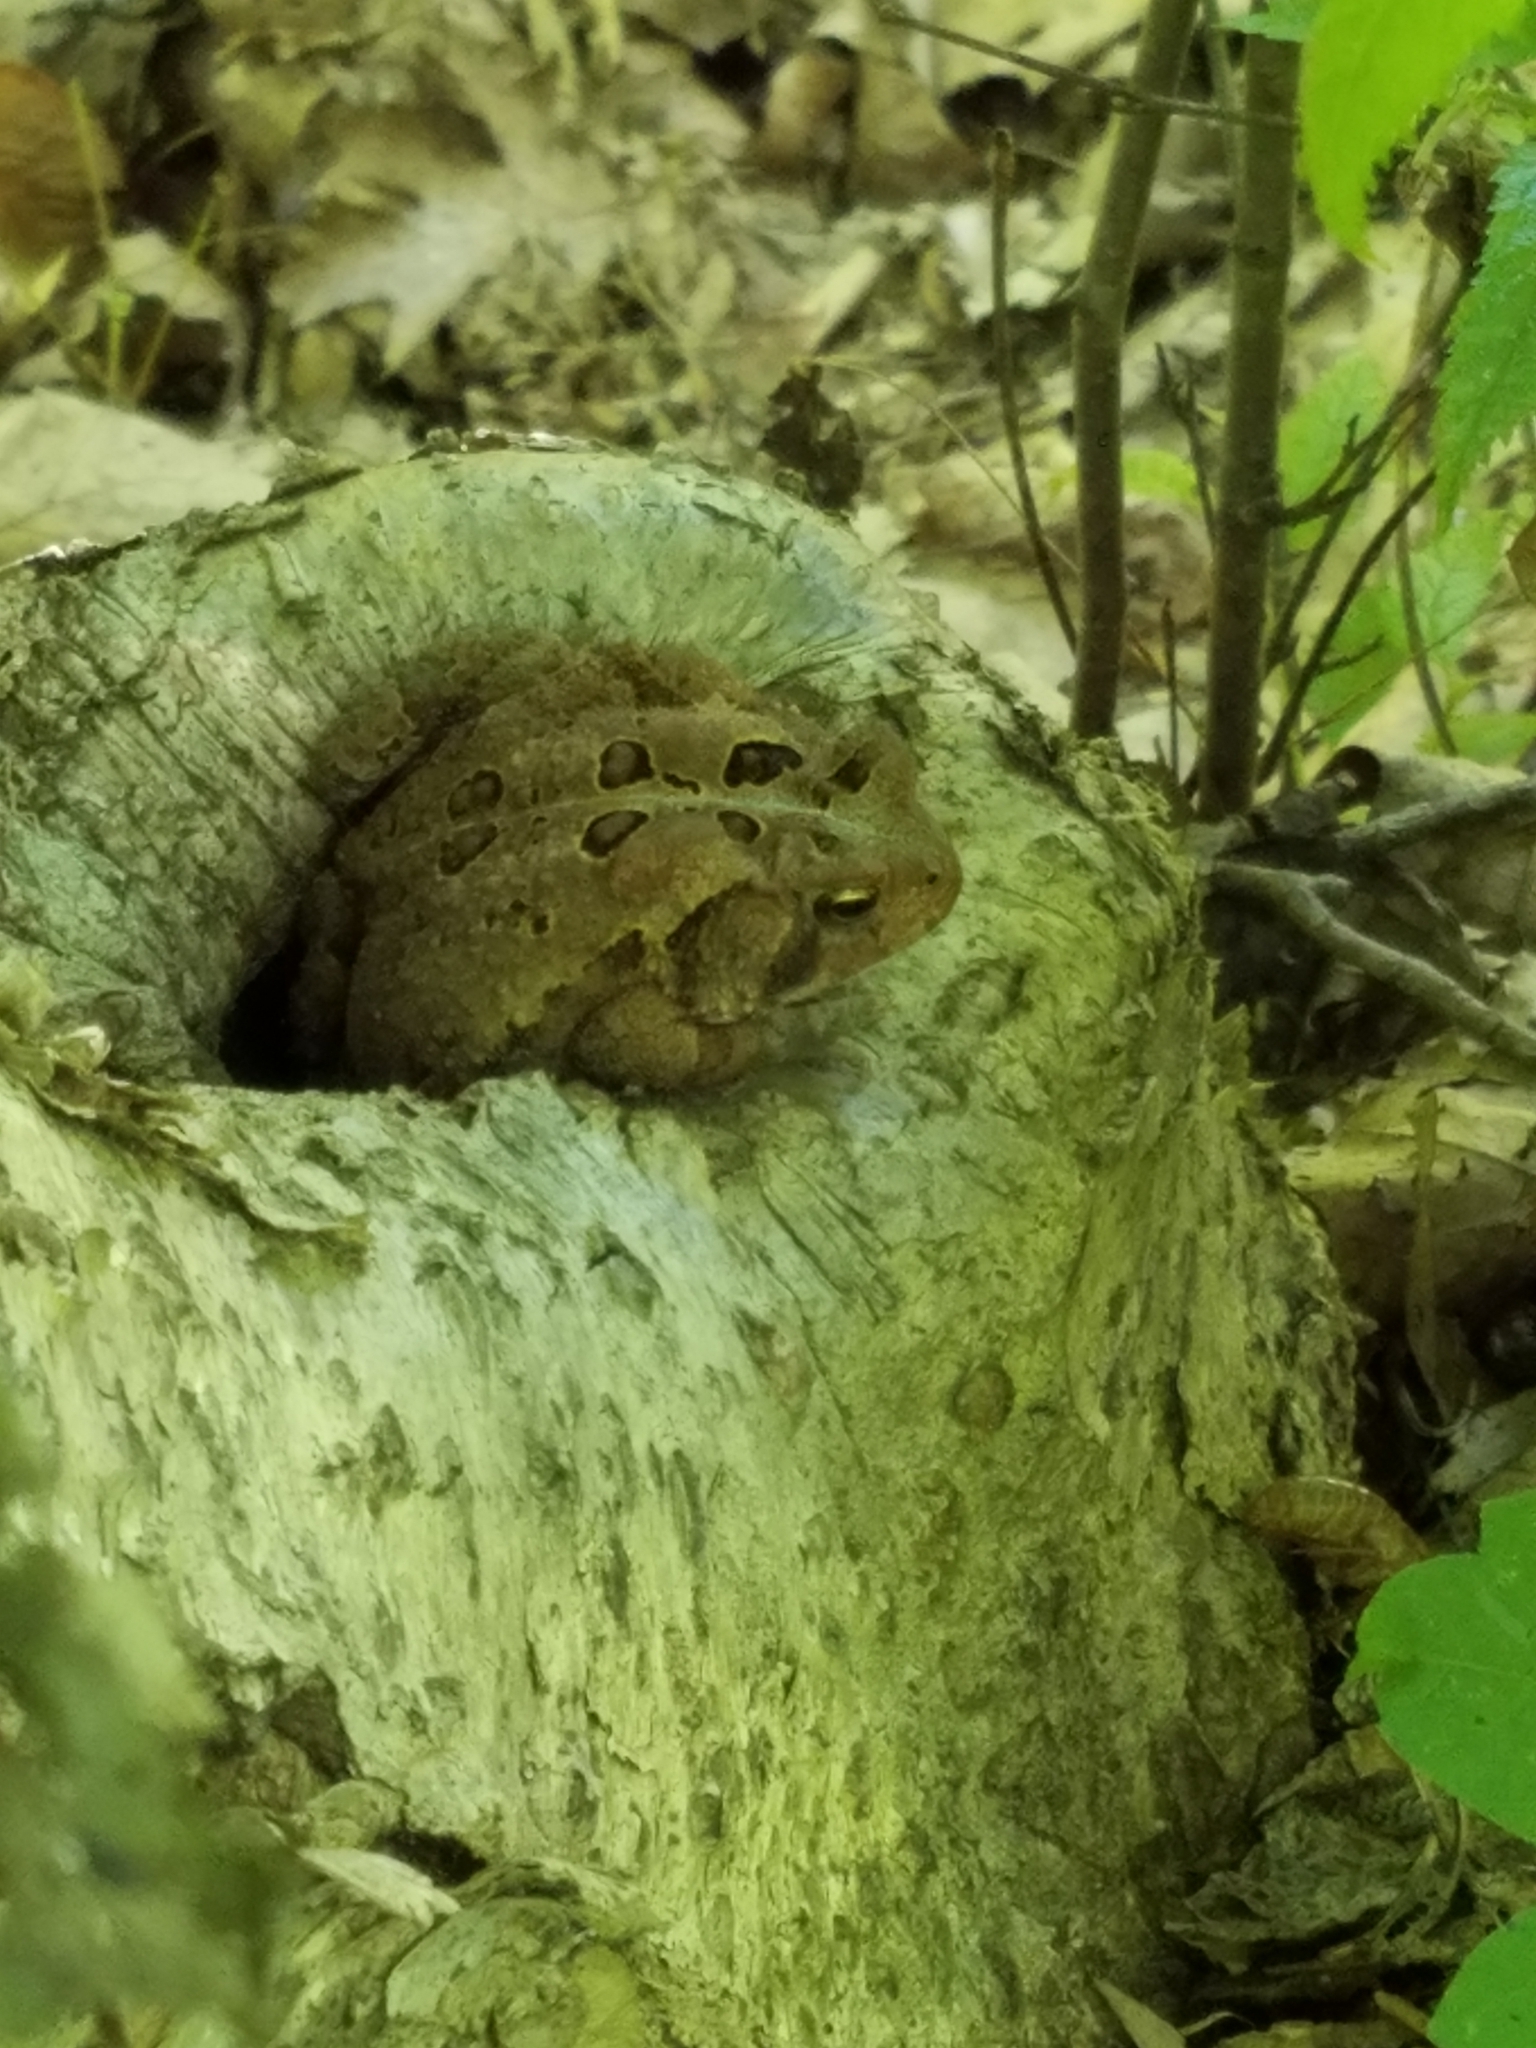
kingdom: Animalia
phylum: Chordata
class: Amphibia
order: Anura
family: Bufonidae
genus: Anaxyrus
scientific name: Anaxyrus americanus
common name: American toad
